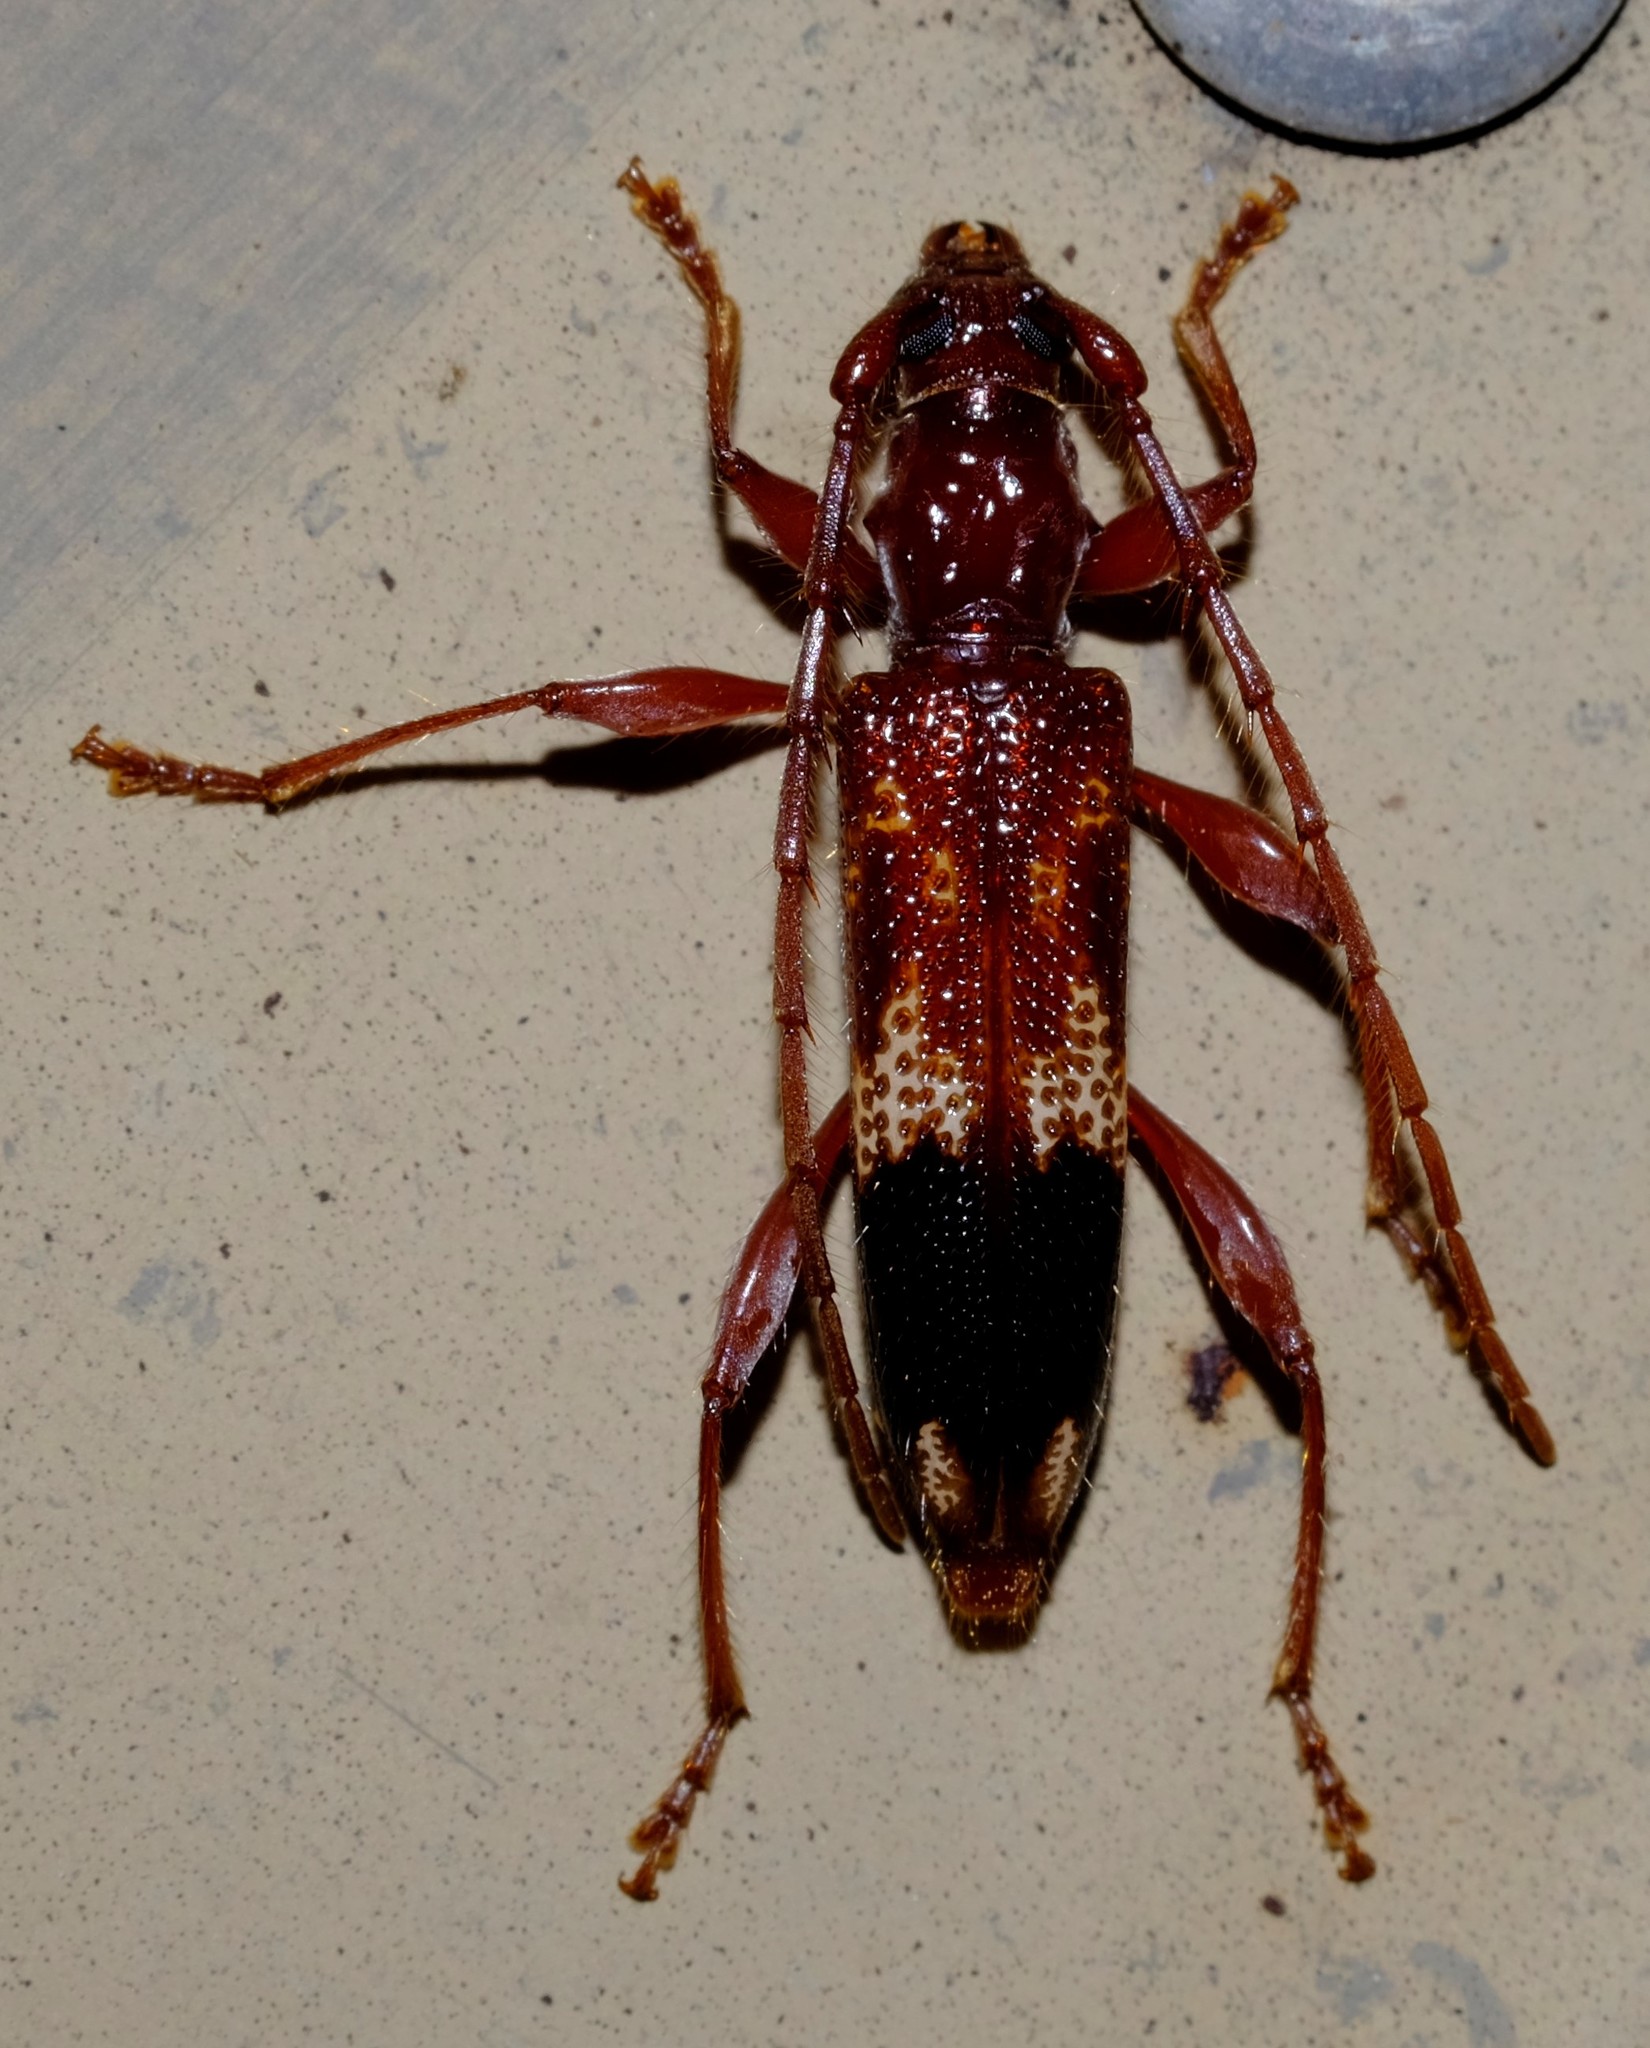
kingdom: Animalia
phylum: Arthropoda
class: Insecta
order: Coleoptera
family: Cerambycidae
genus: Phoracantha
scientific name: Phoracantha semipunctata
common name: Eucalyptus longhorn borer
